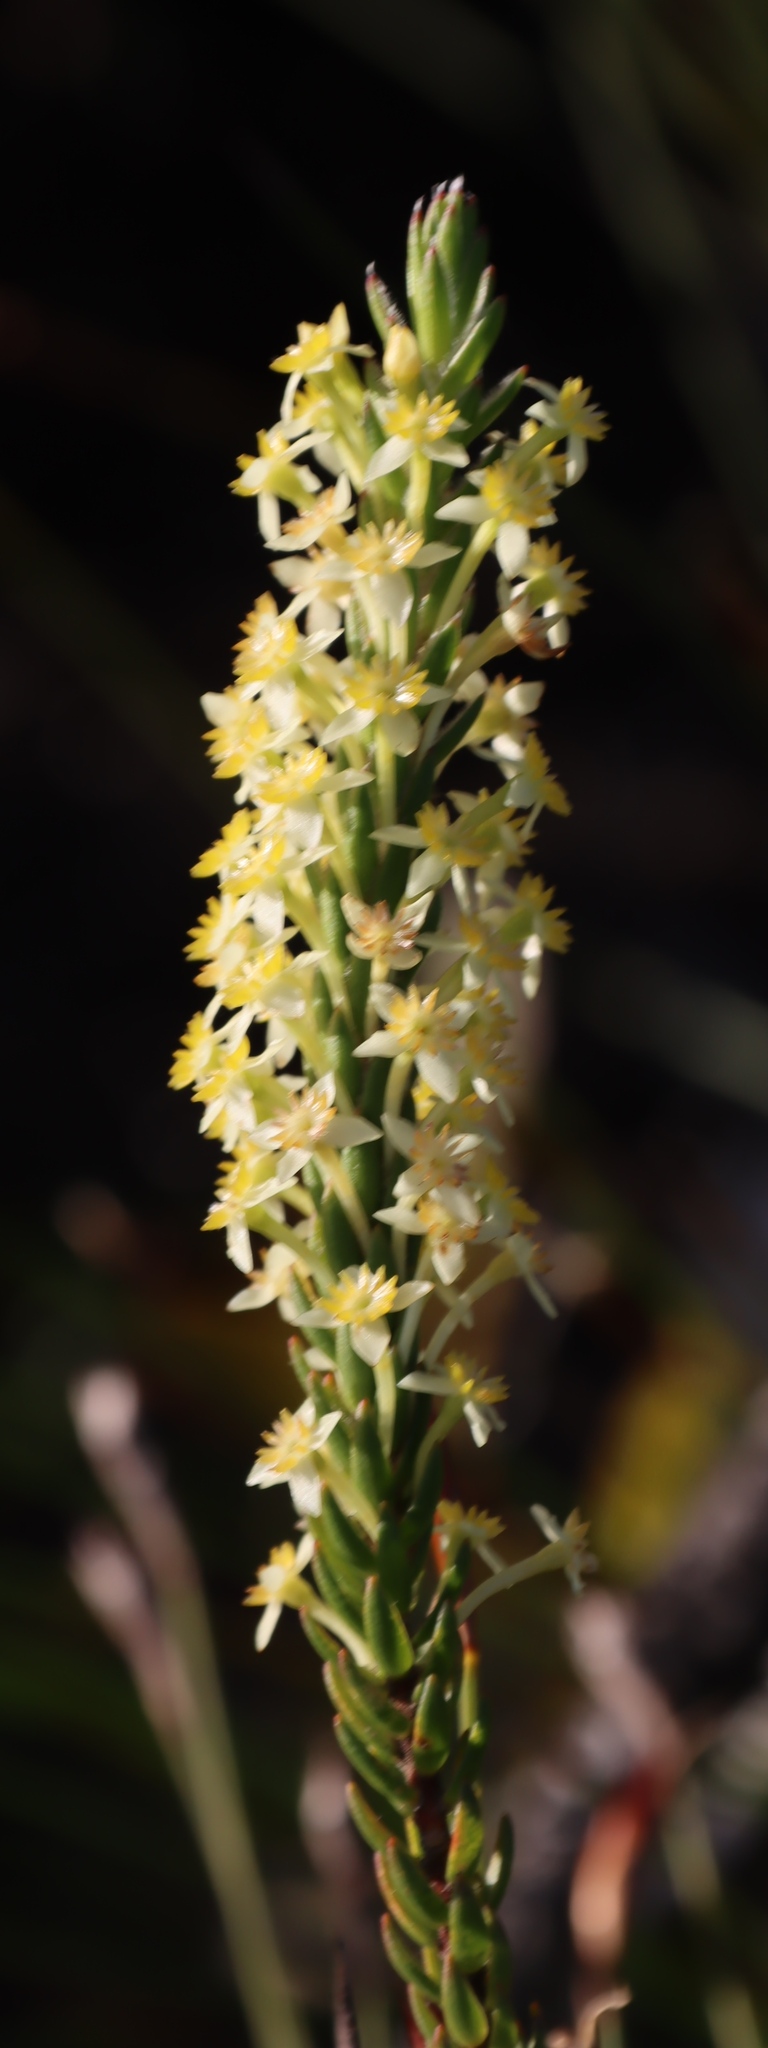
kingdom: Plantae
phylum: Tracheophyta
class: Magnoliopsida
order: Malvales
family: Thymelaeaceae
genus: Struthiola
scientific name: Struthiola argentea
